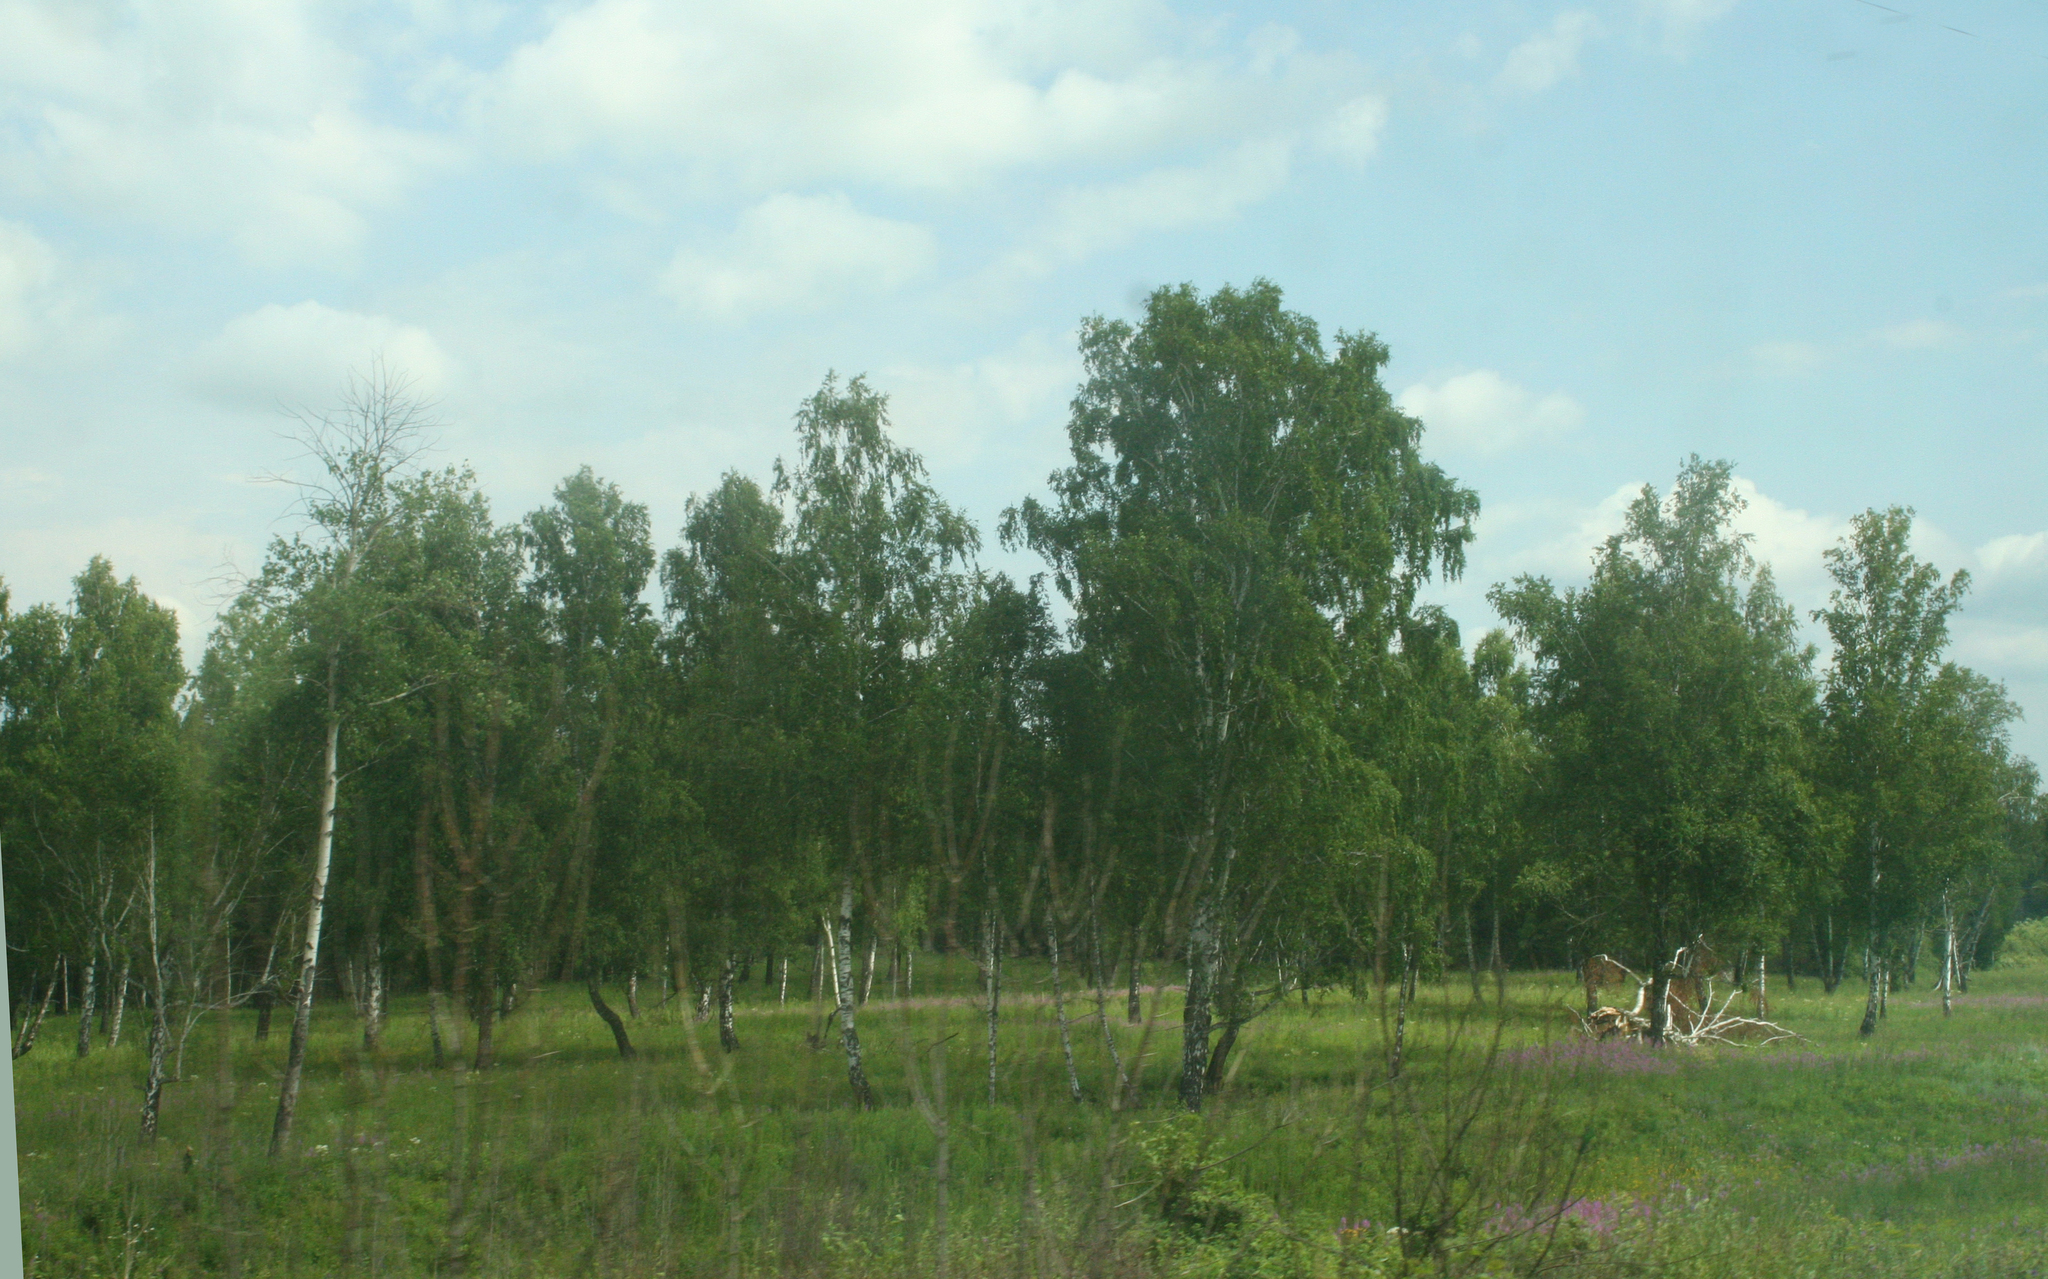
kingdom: Plantae
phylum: Tracheophyta
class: Magnoliopsida
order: Fagales
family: Betulaceae
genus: Betula
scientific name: Betula pendula
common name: Silver birch
